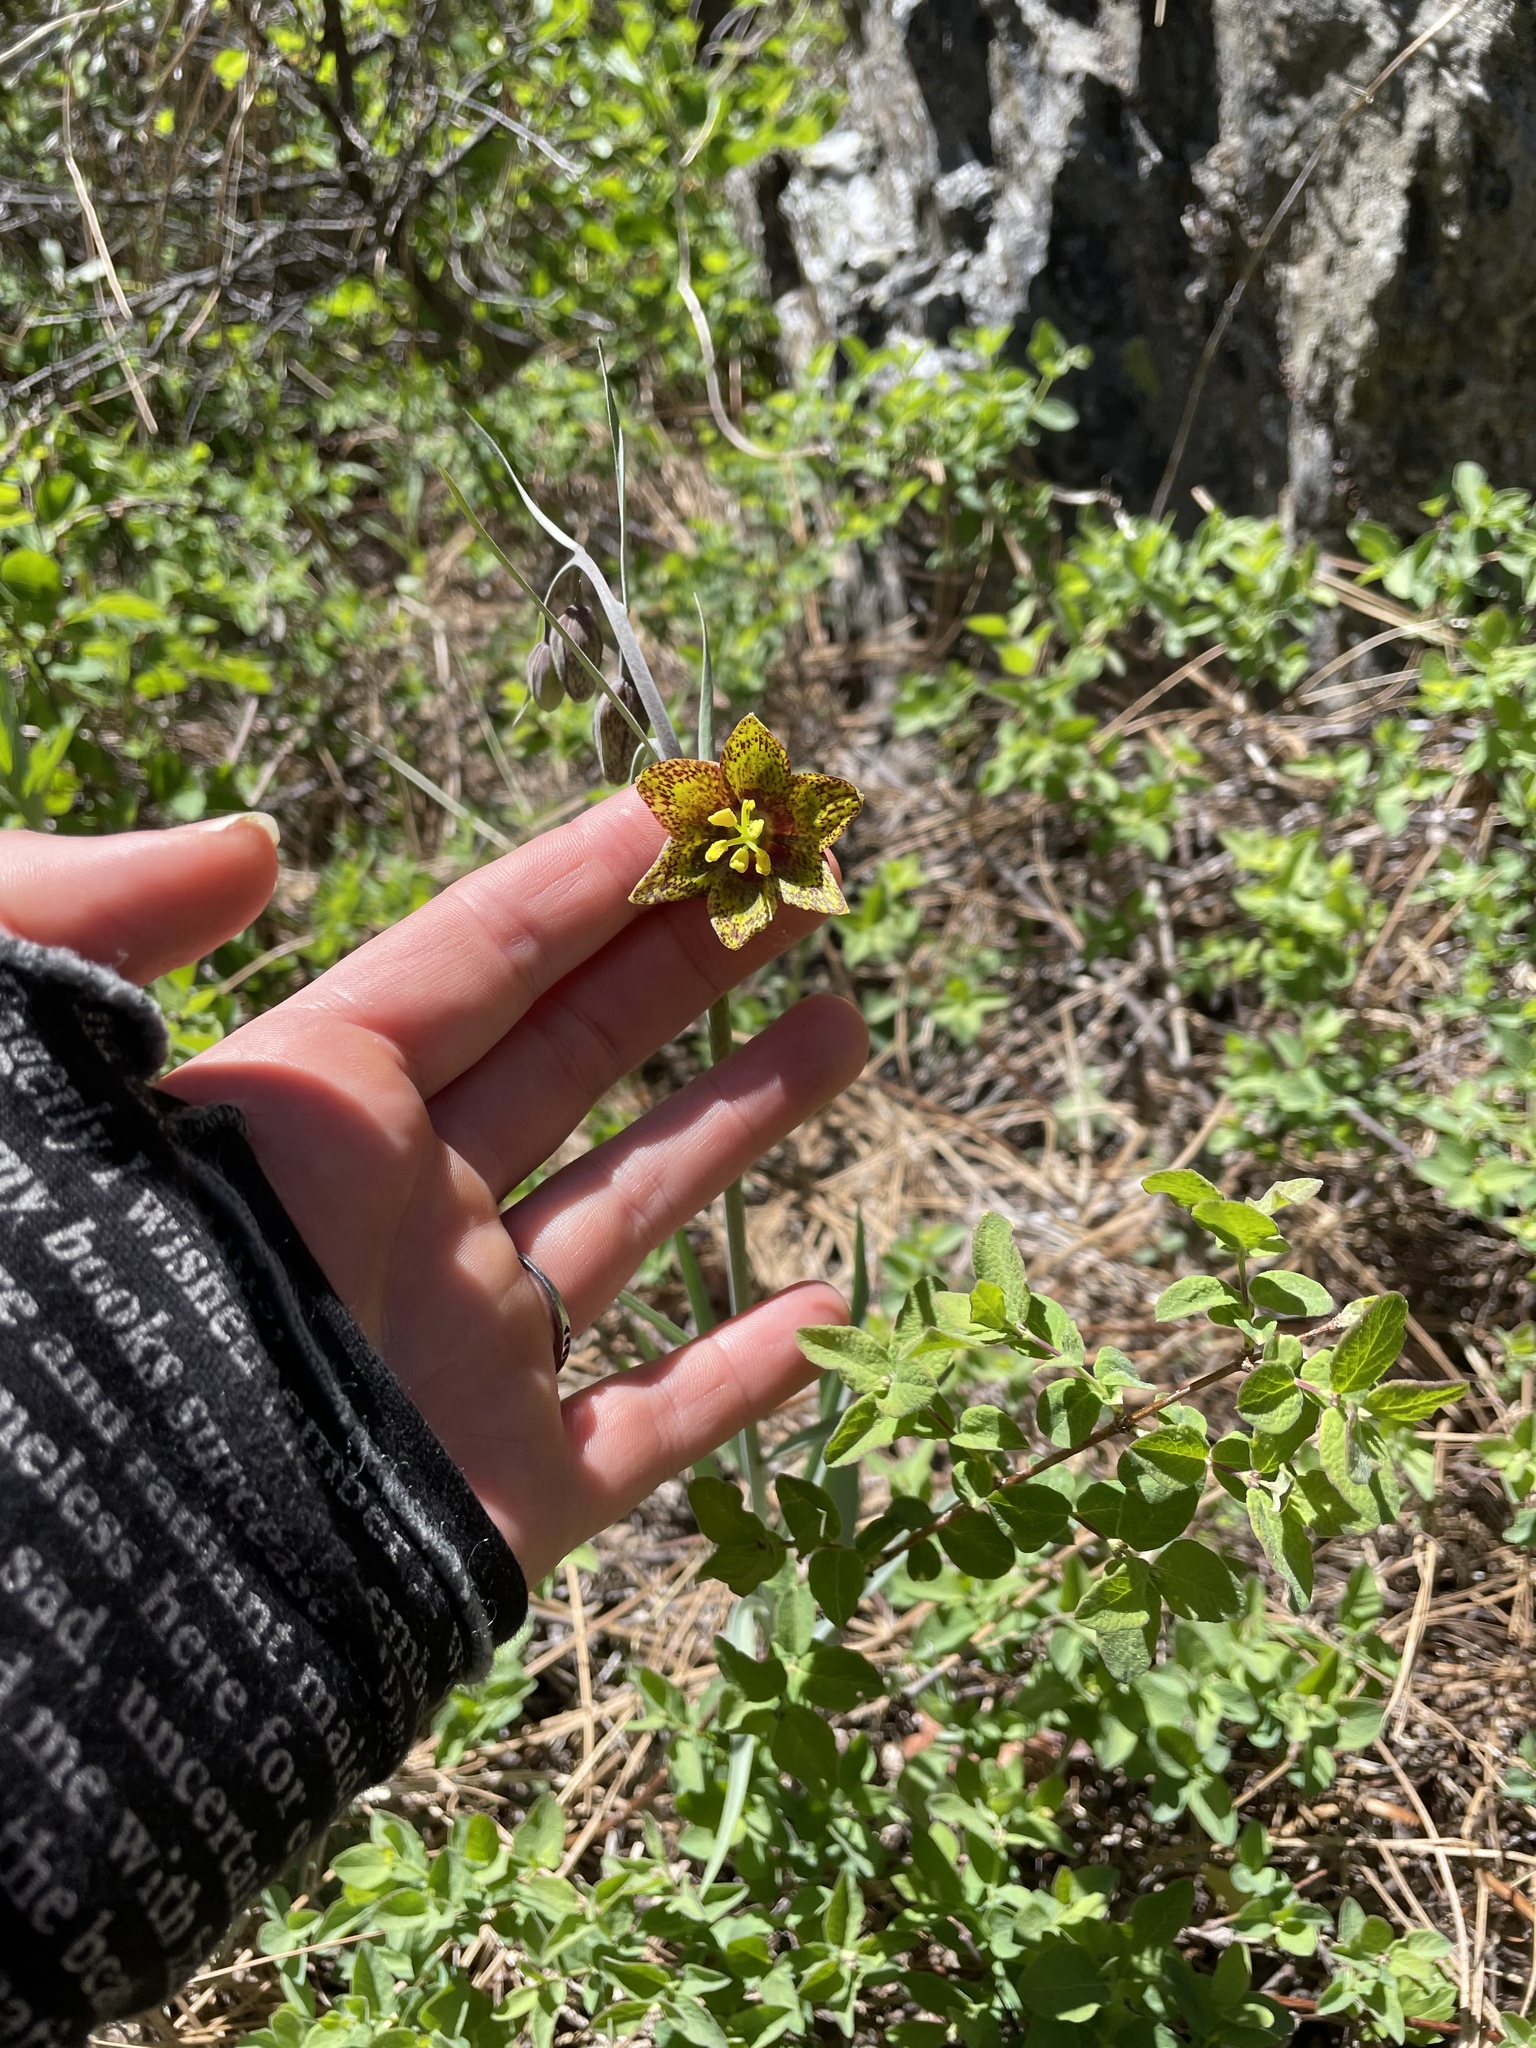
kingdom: Plantae
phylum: Tracheophyta
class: Liliopsida
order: Liliales
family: Liliaceae
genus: Fritillaria
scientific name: Fritillaria atropurpurea
